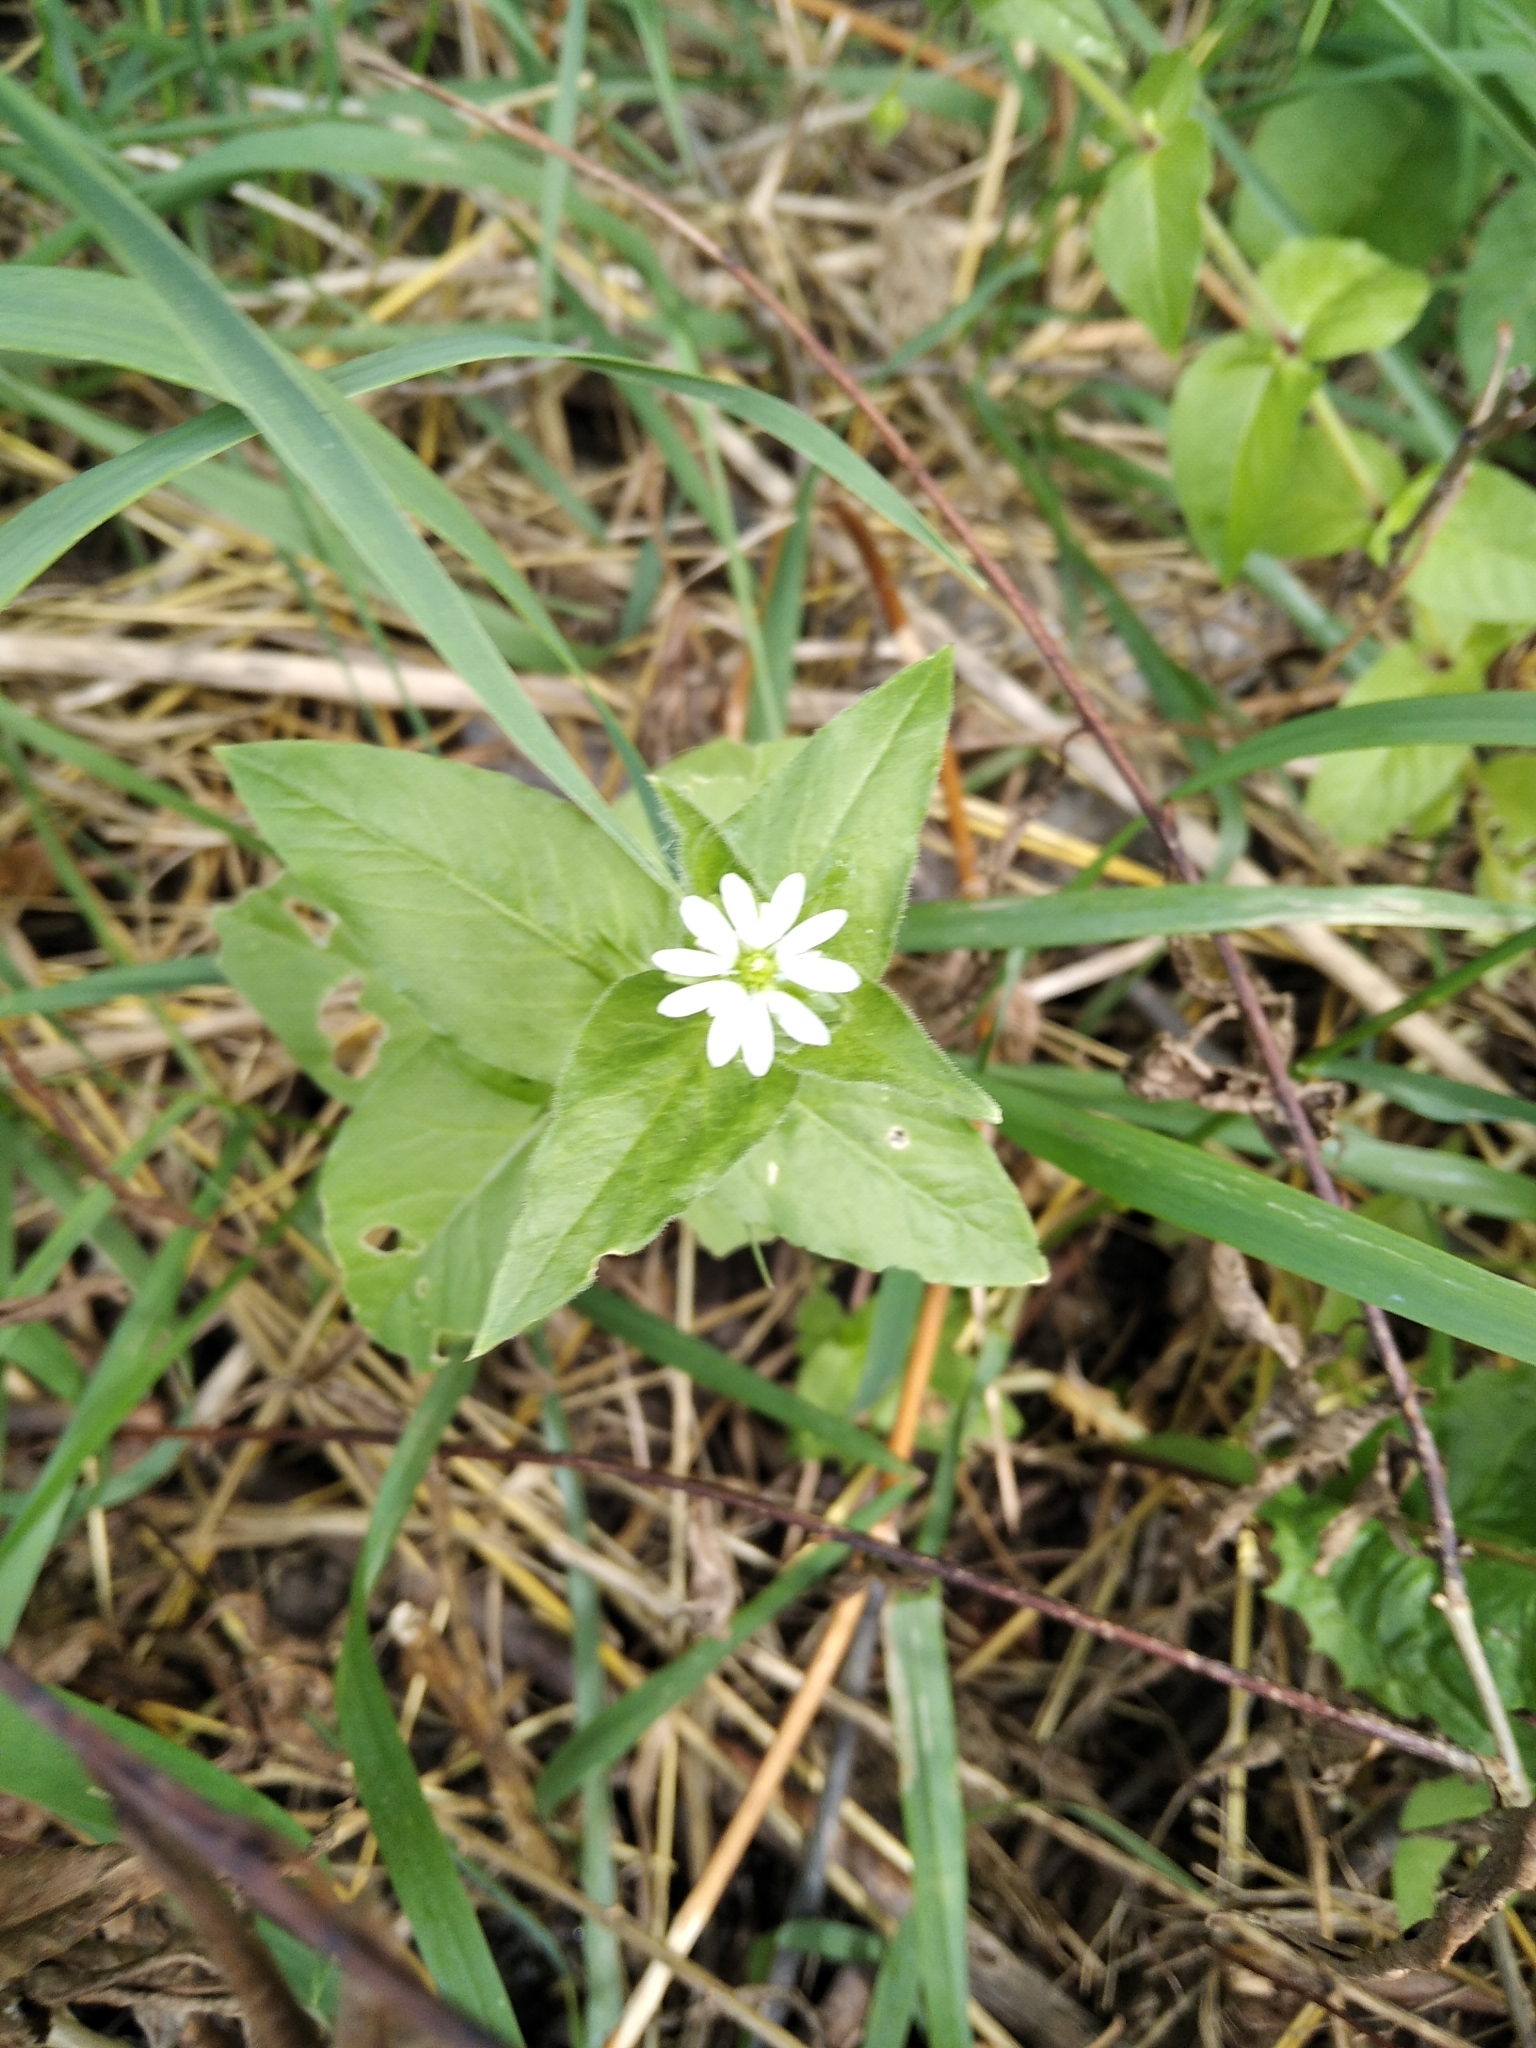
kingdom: Plantae
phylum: Tracheophyta
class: Magnoliopsida
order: Caryophyllales
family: Caryophyllaceae
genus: Stellaria
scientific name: Stellaria aquatica
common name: Water chickweed
